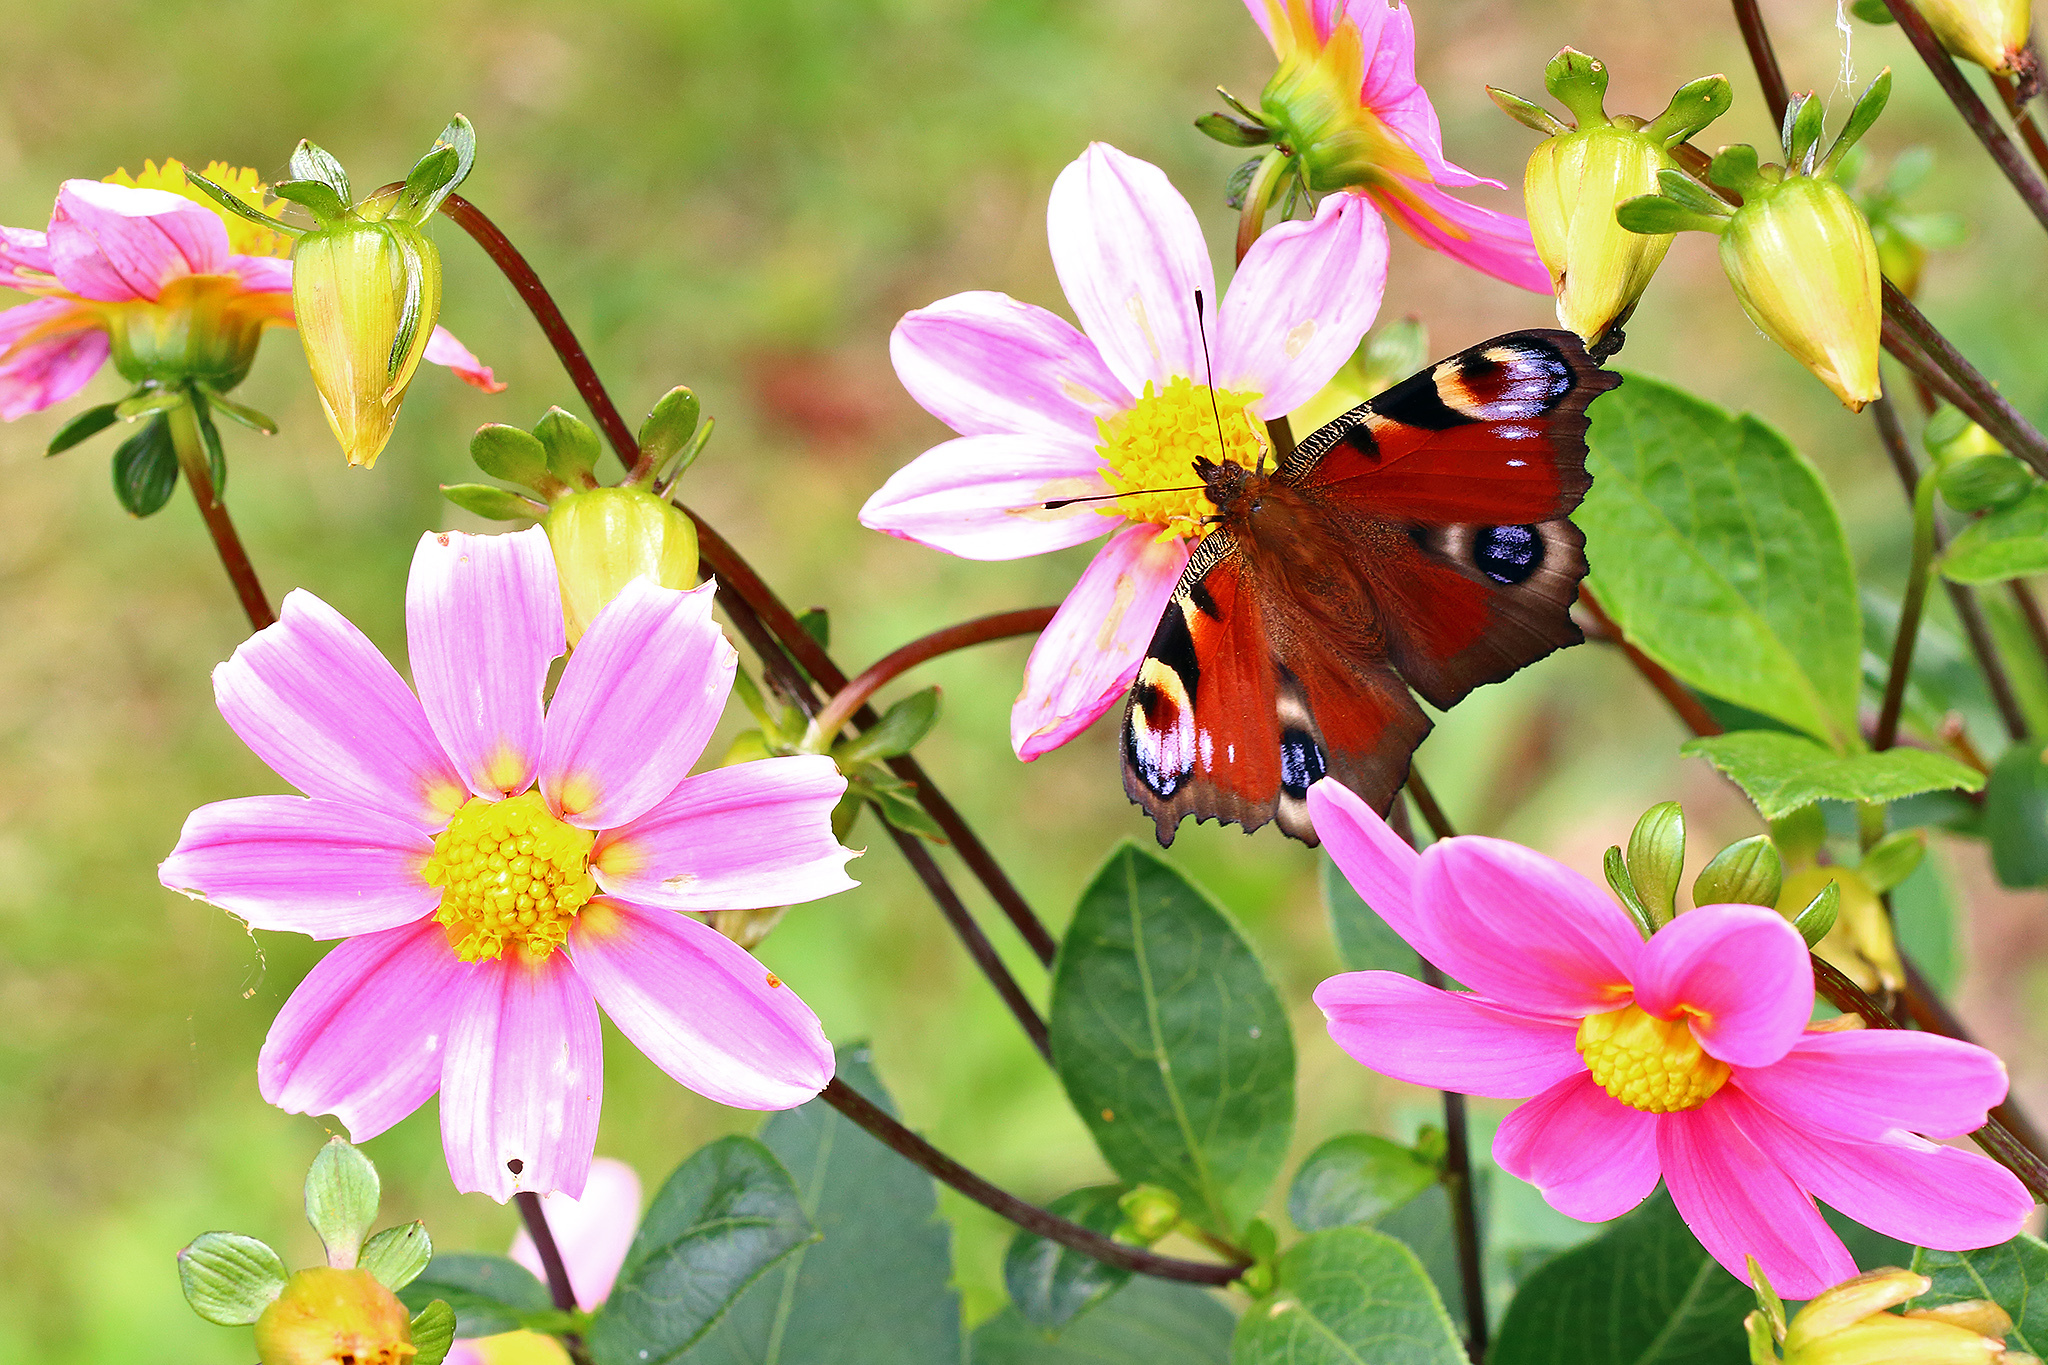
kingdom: Animalia
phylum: Arthropoda
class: Insecta
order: Lepidoptera
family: Nymphalidae
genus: Aglais
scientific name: Aglais io
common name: Peacock
